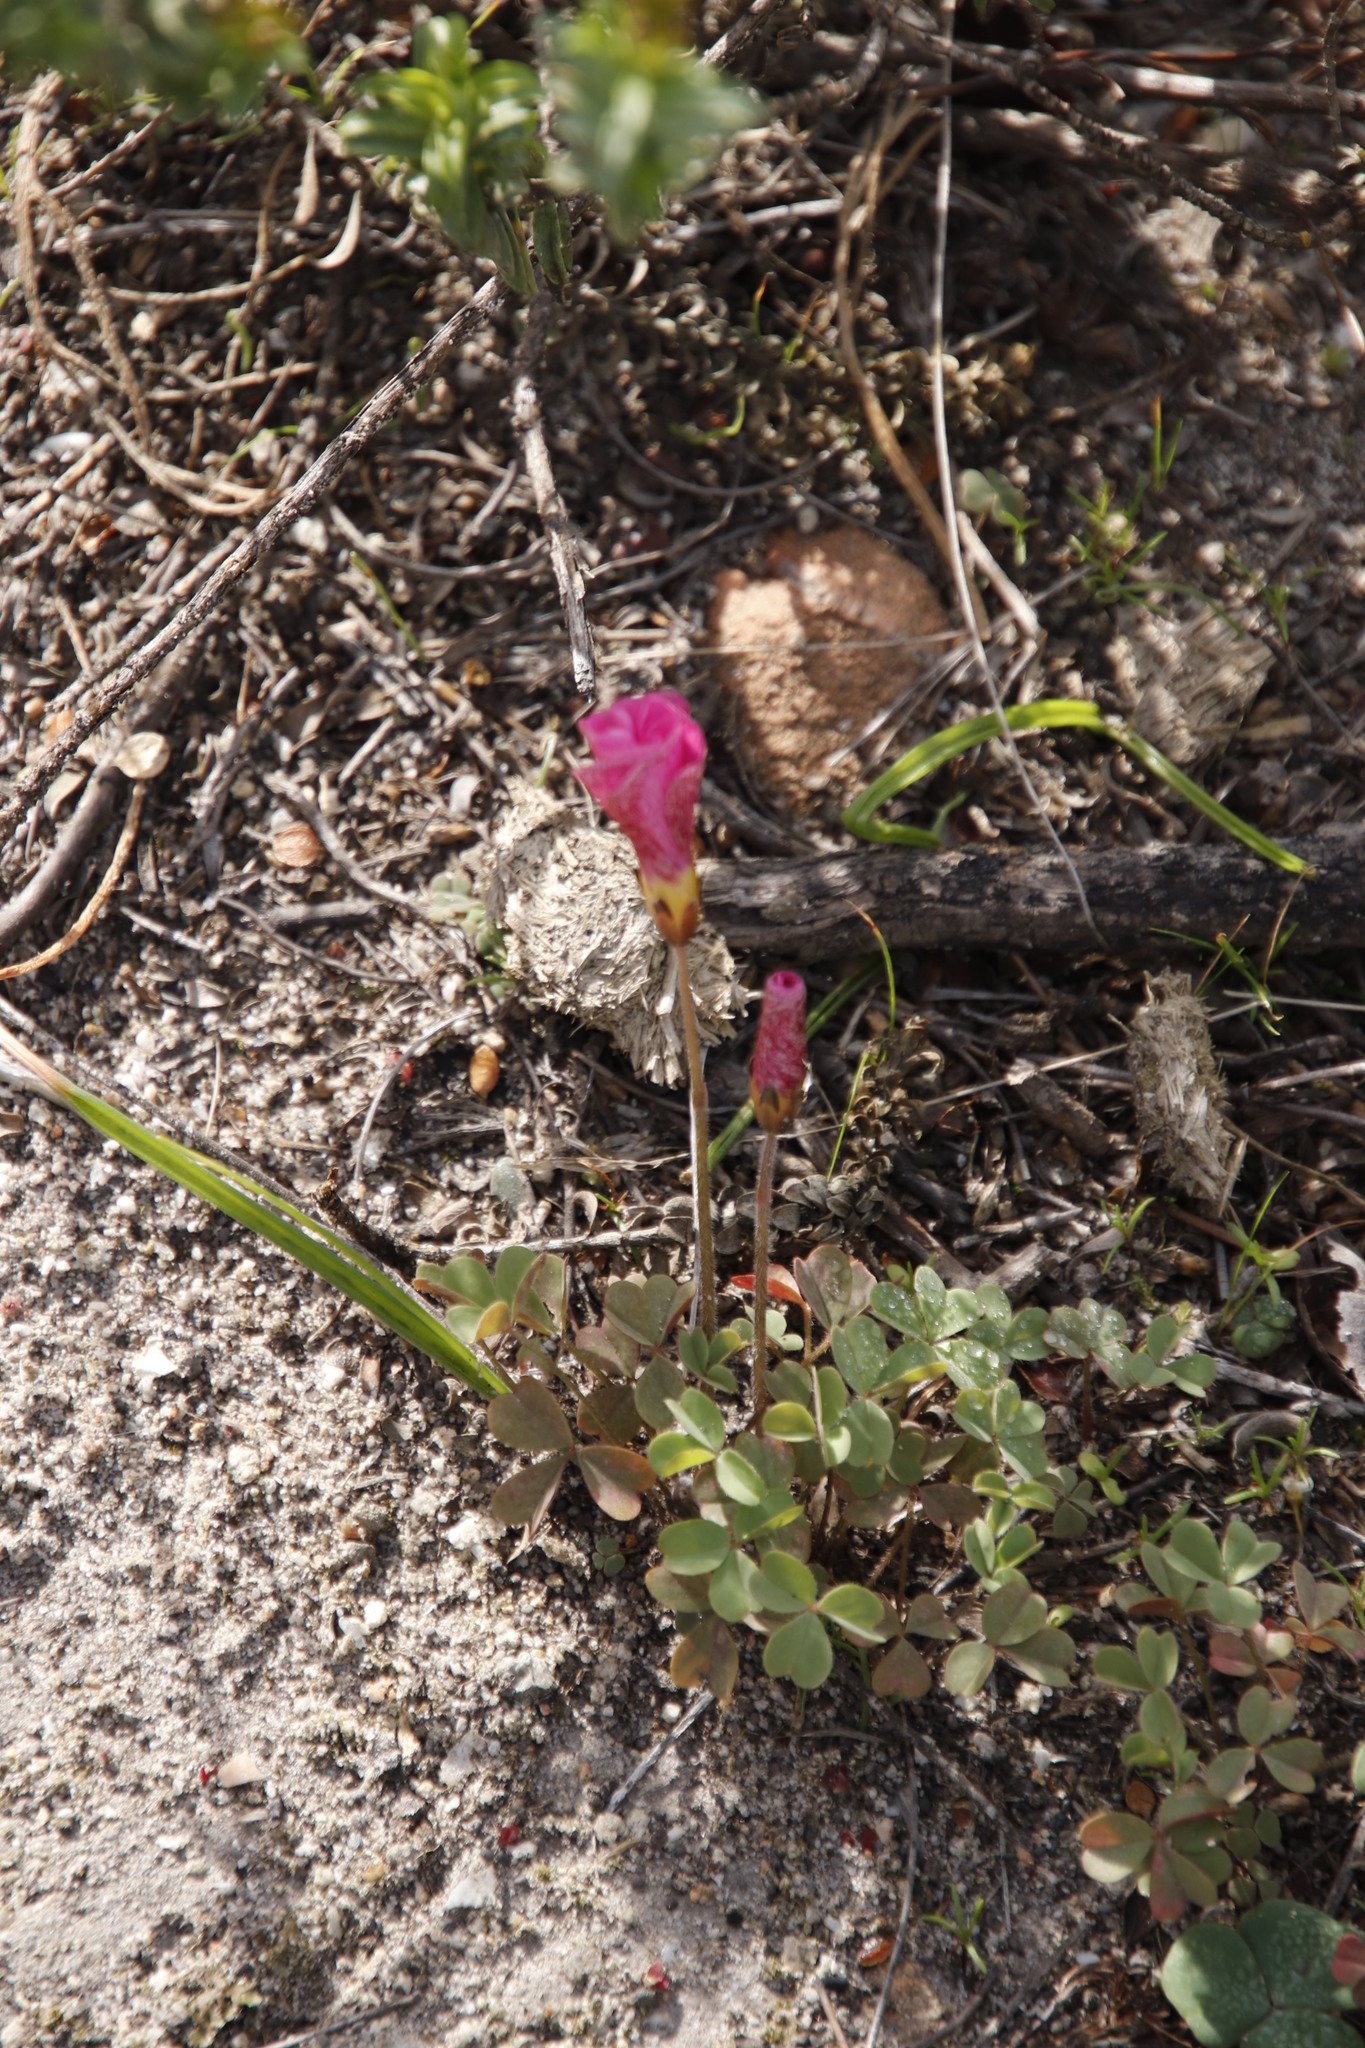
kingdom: Plantae
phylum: Tracheophyta
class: Magnoliopsida
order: Oxalidales
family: Oxalidaceae
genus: Oxalis
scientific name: Oxalis obtusa
